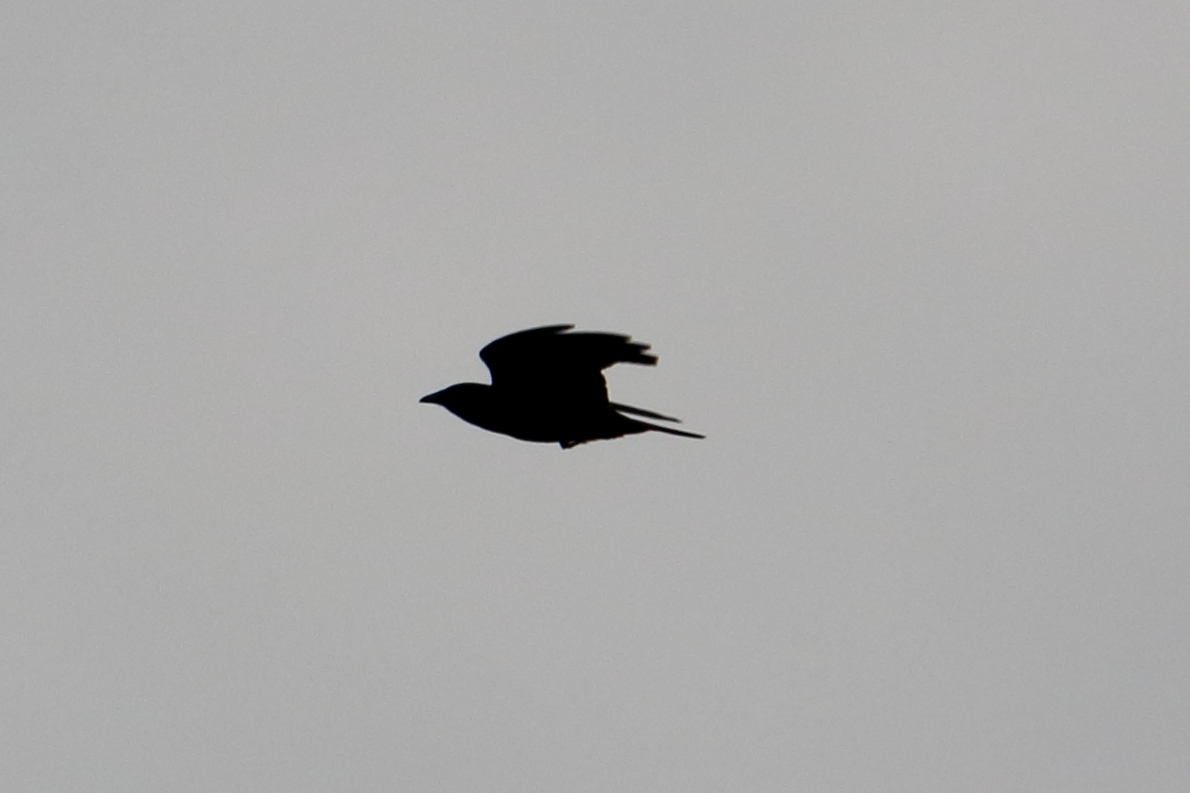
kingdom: Animalia
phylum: Chordata
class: Aves
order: Passeriformes
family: Corvidae
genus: Corvus
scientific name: Corvus brachyrhynchos
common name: American crow
